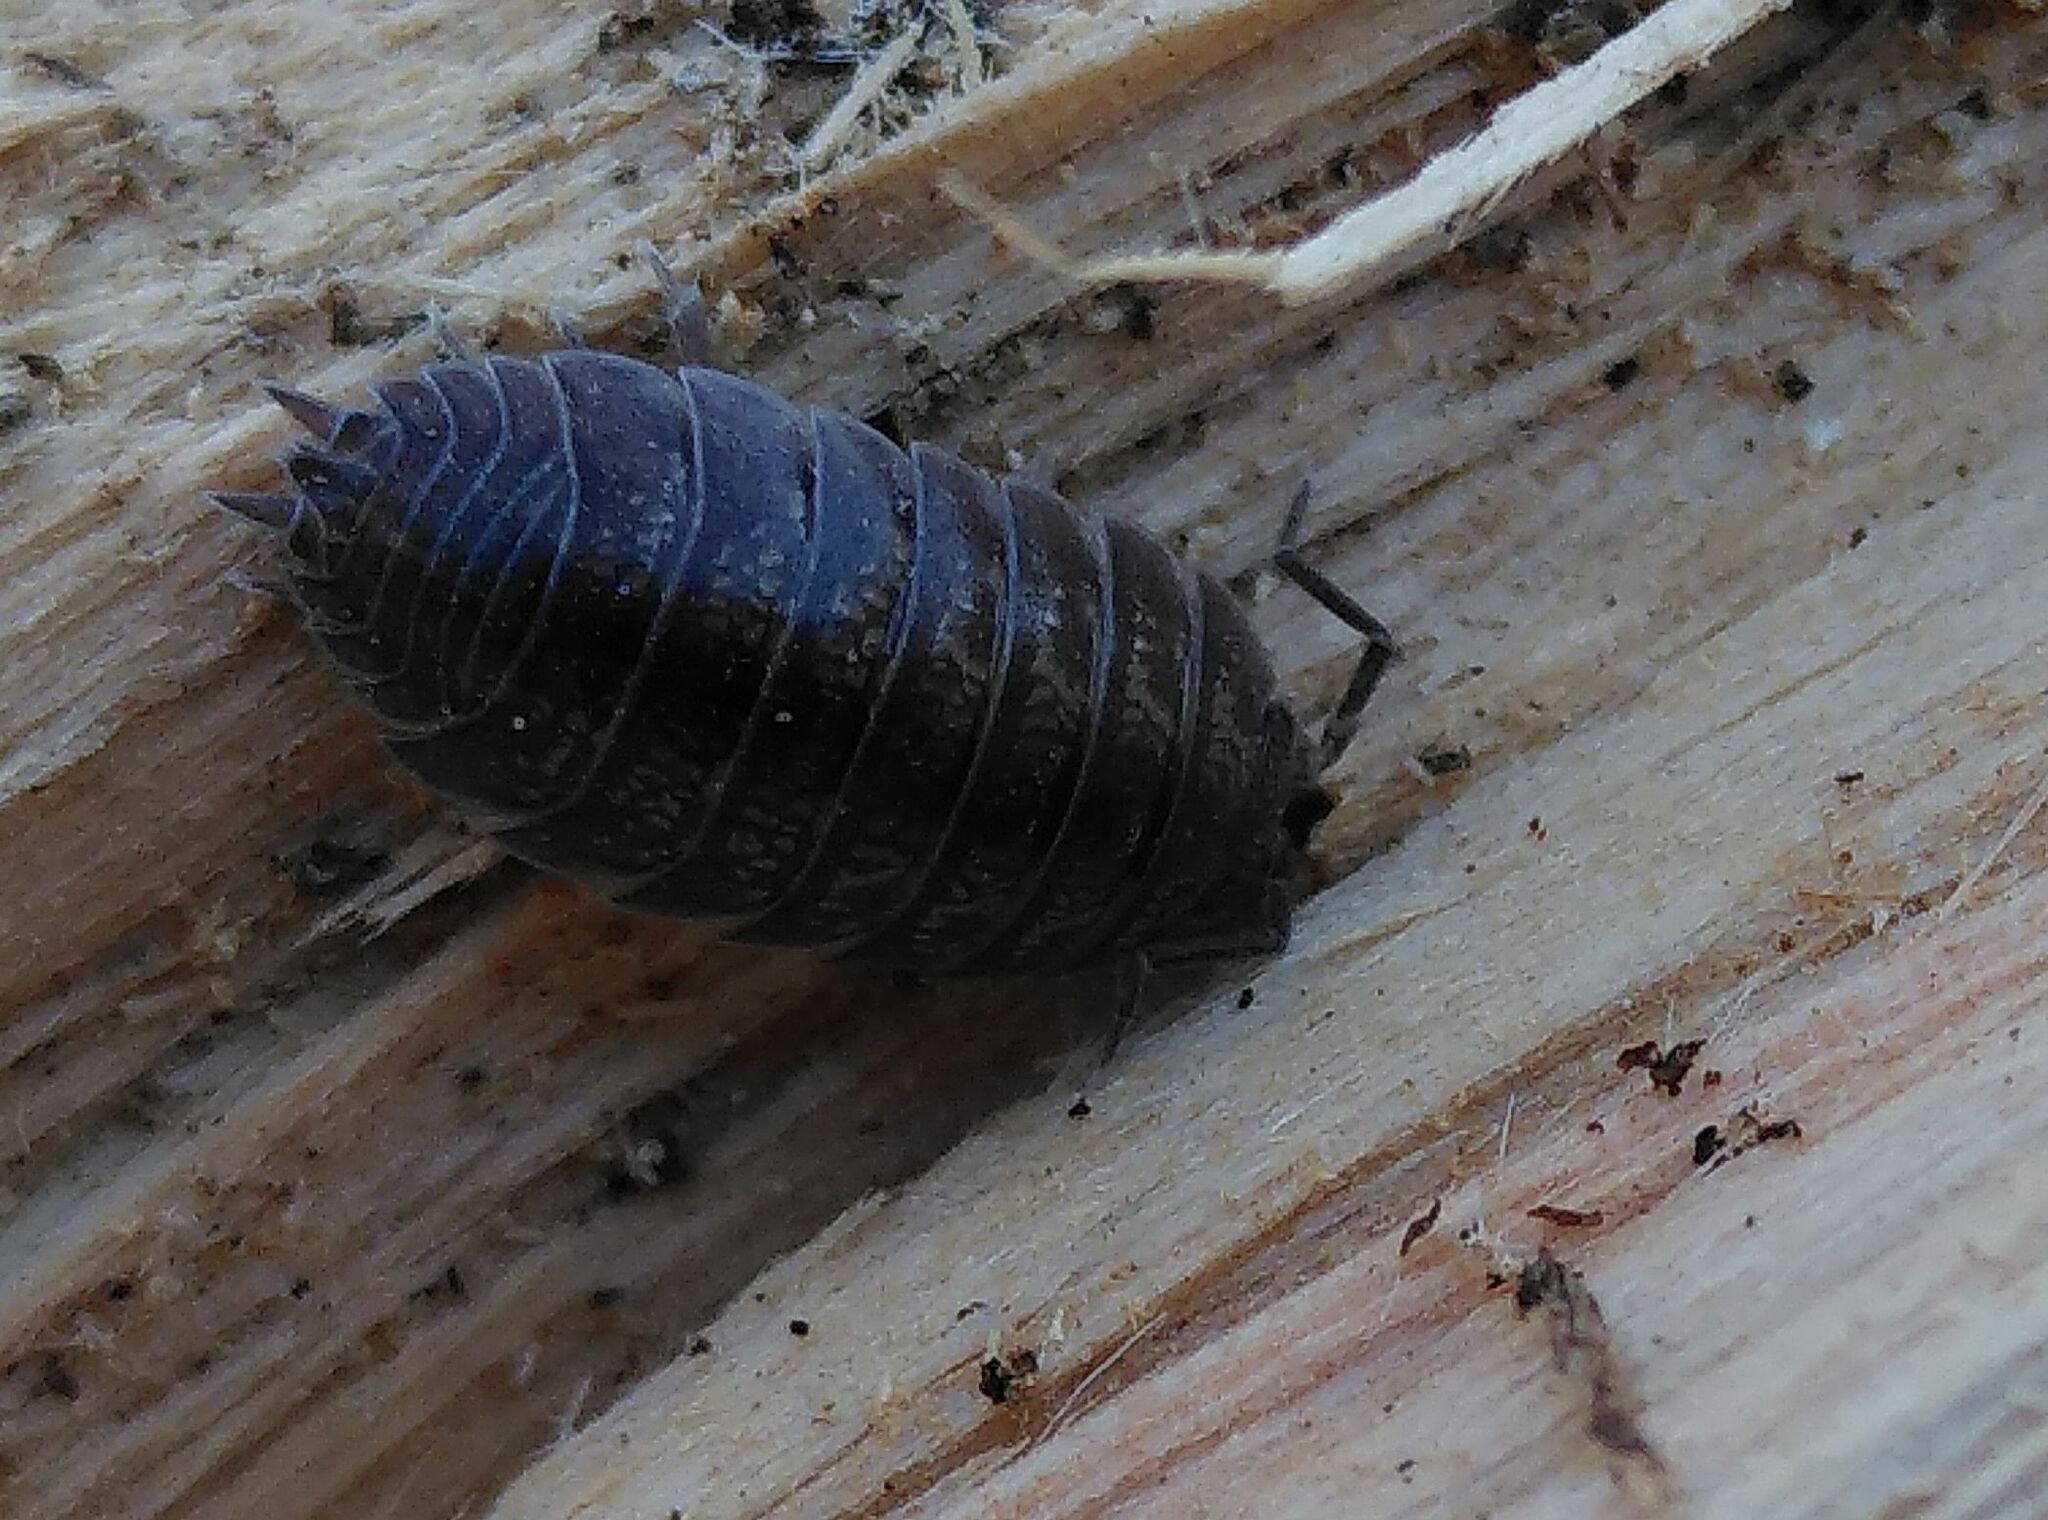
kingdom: Animalia
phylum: Arthropoda
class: Malacostraca
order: Isopoda
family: Porcellionidae
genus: Porcellio
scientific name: Porcellio laevis
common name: Swift woodlouse
